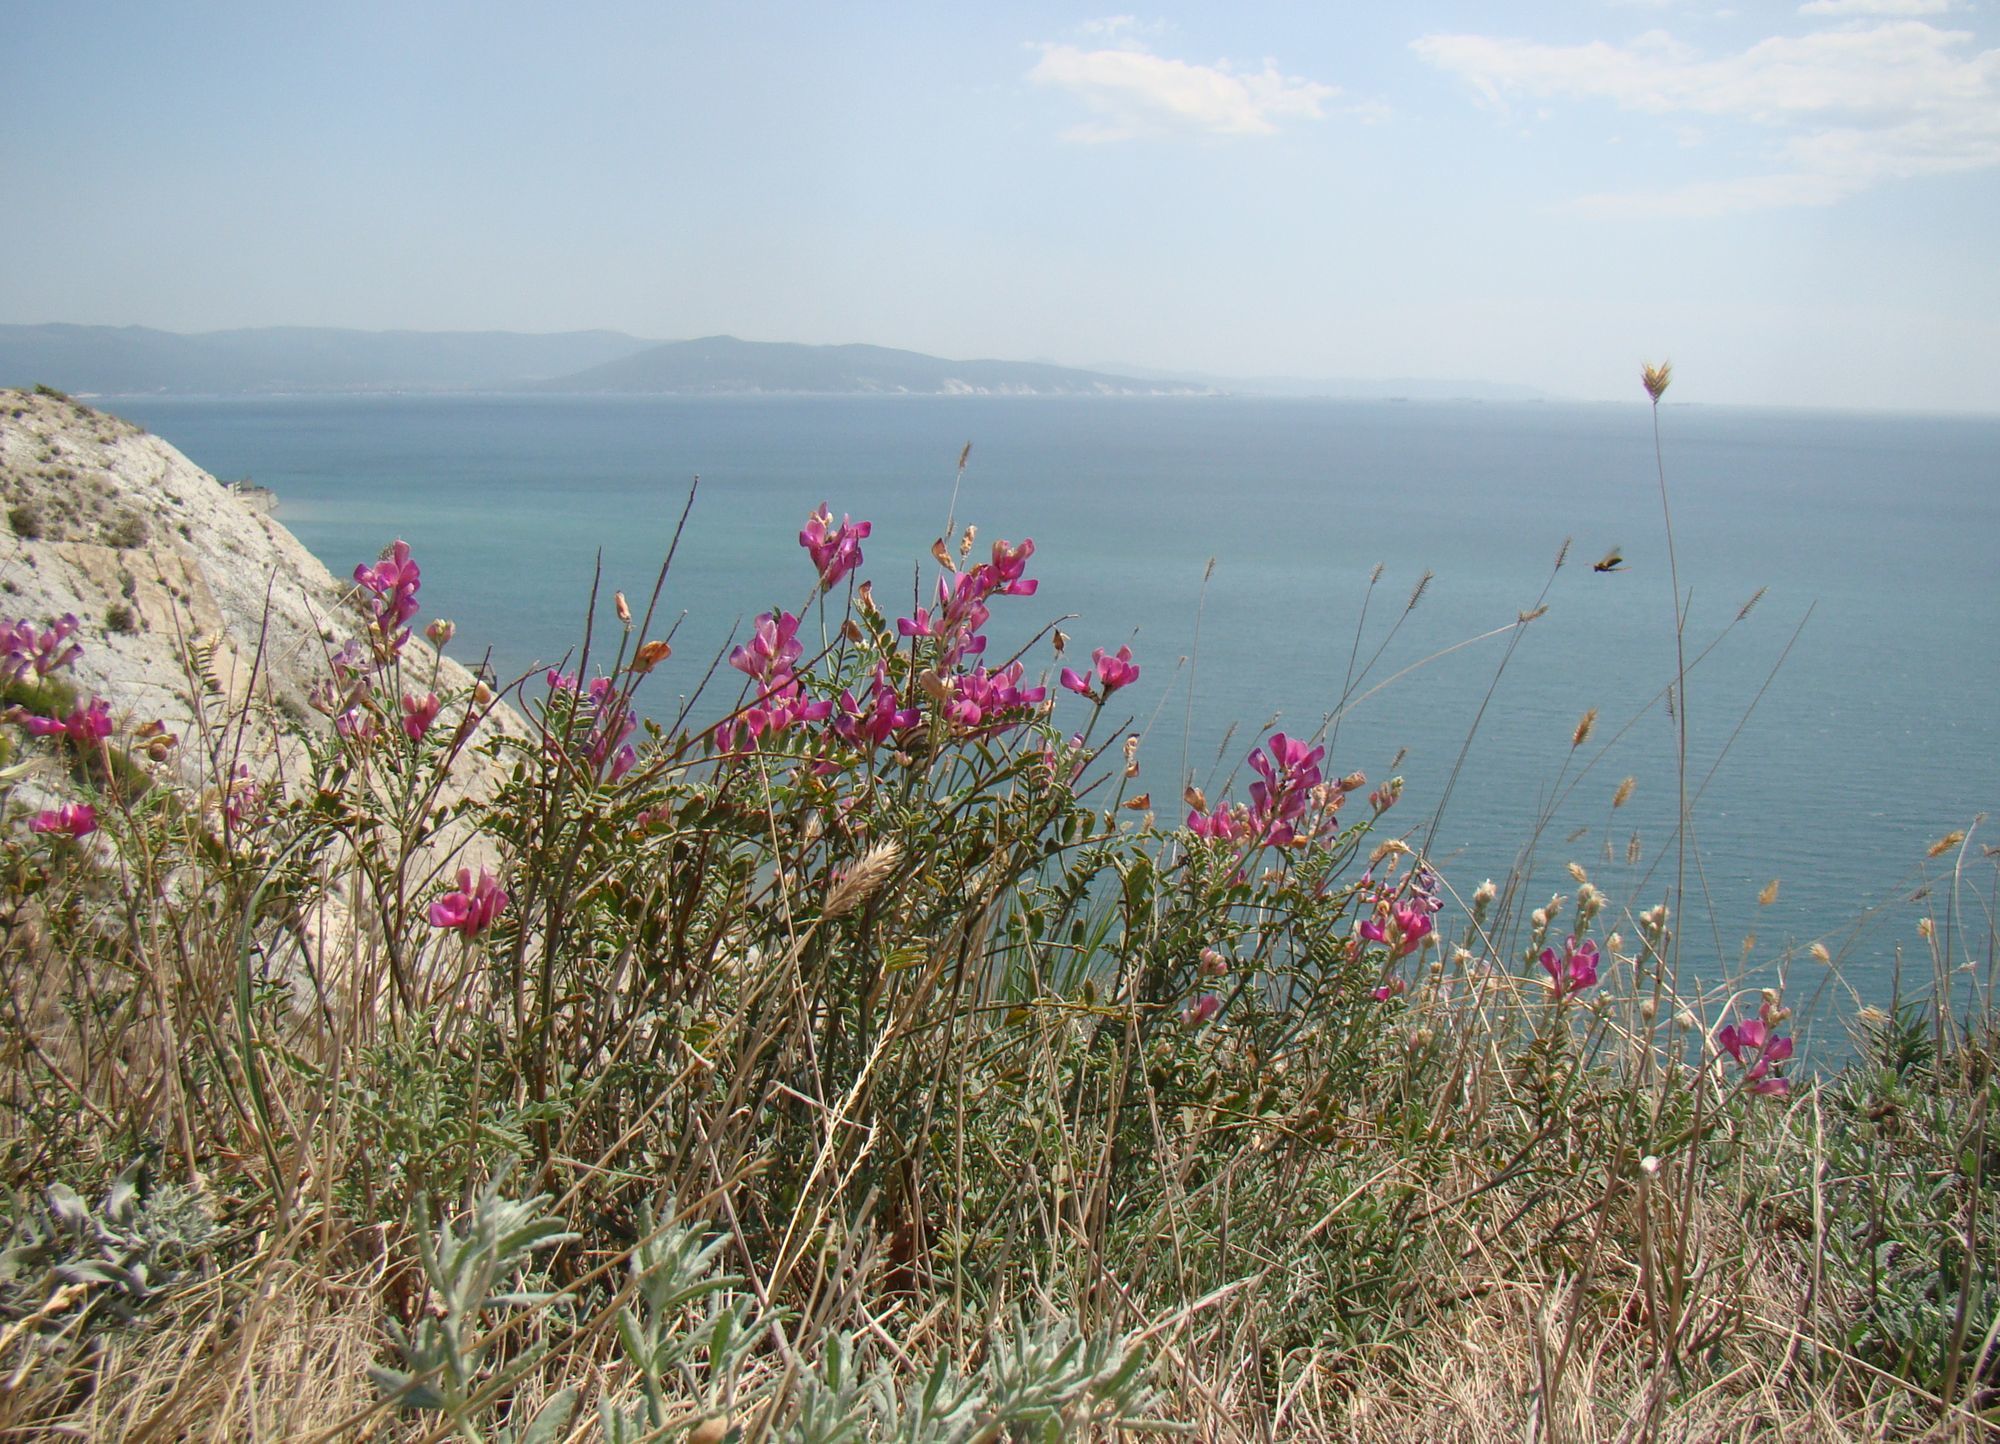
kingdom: Plantae
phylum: Tracheophyta
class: Magnoliopsida
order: Fabales
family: Fabaceae
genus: Hedysarum
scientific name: Hedysarum tauricum
